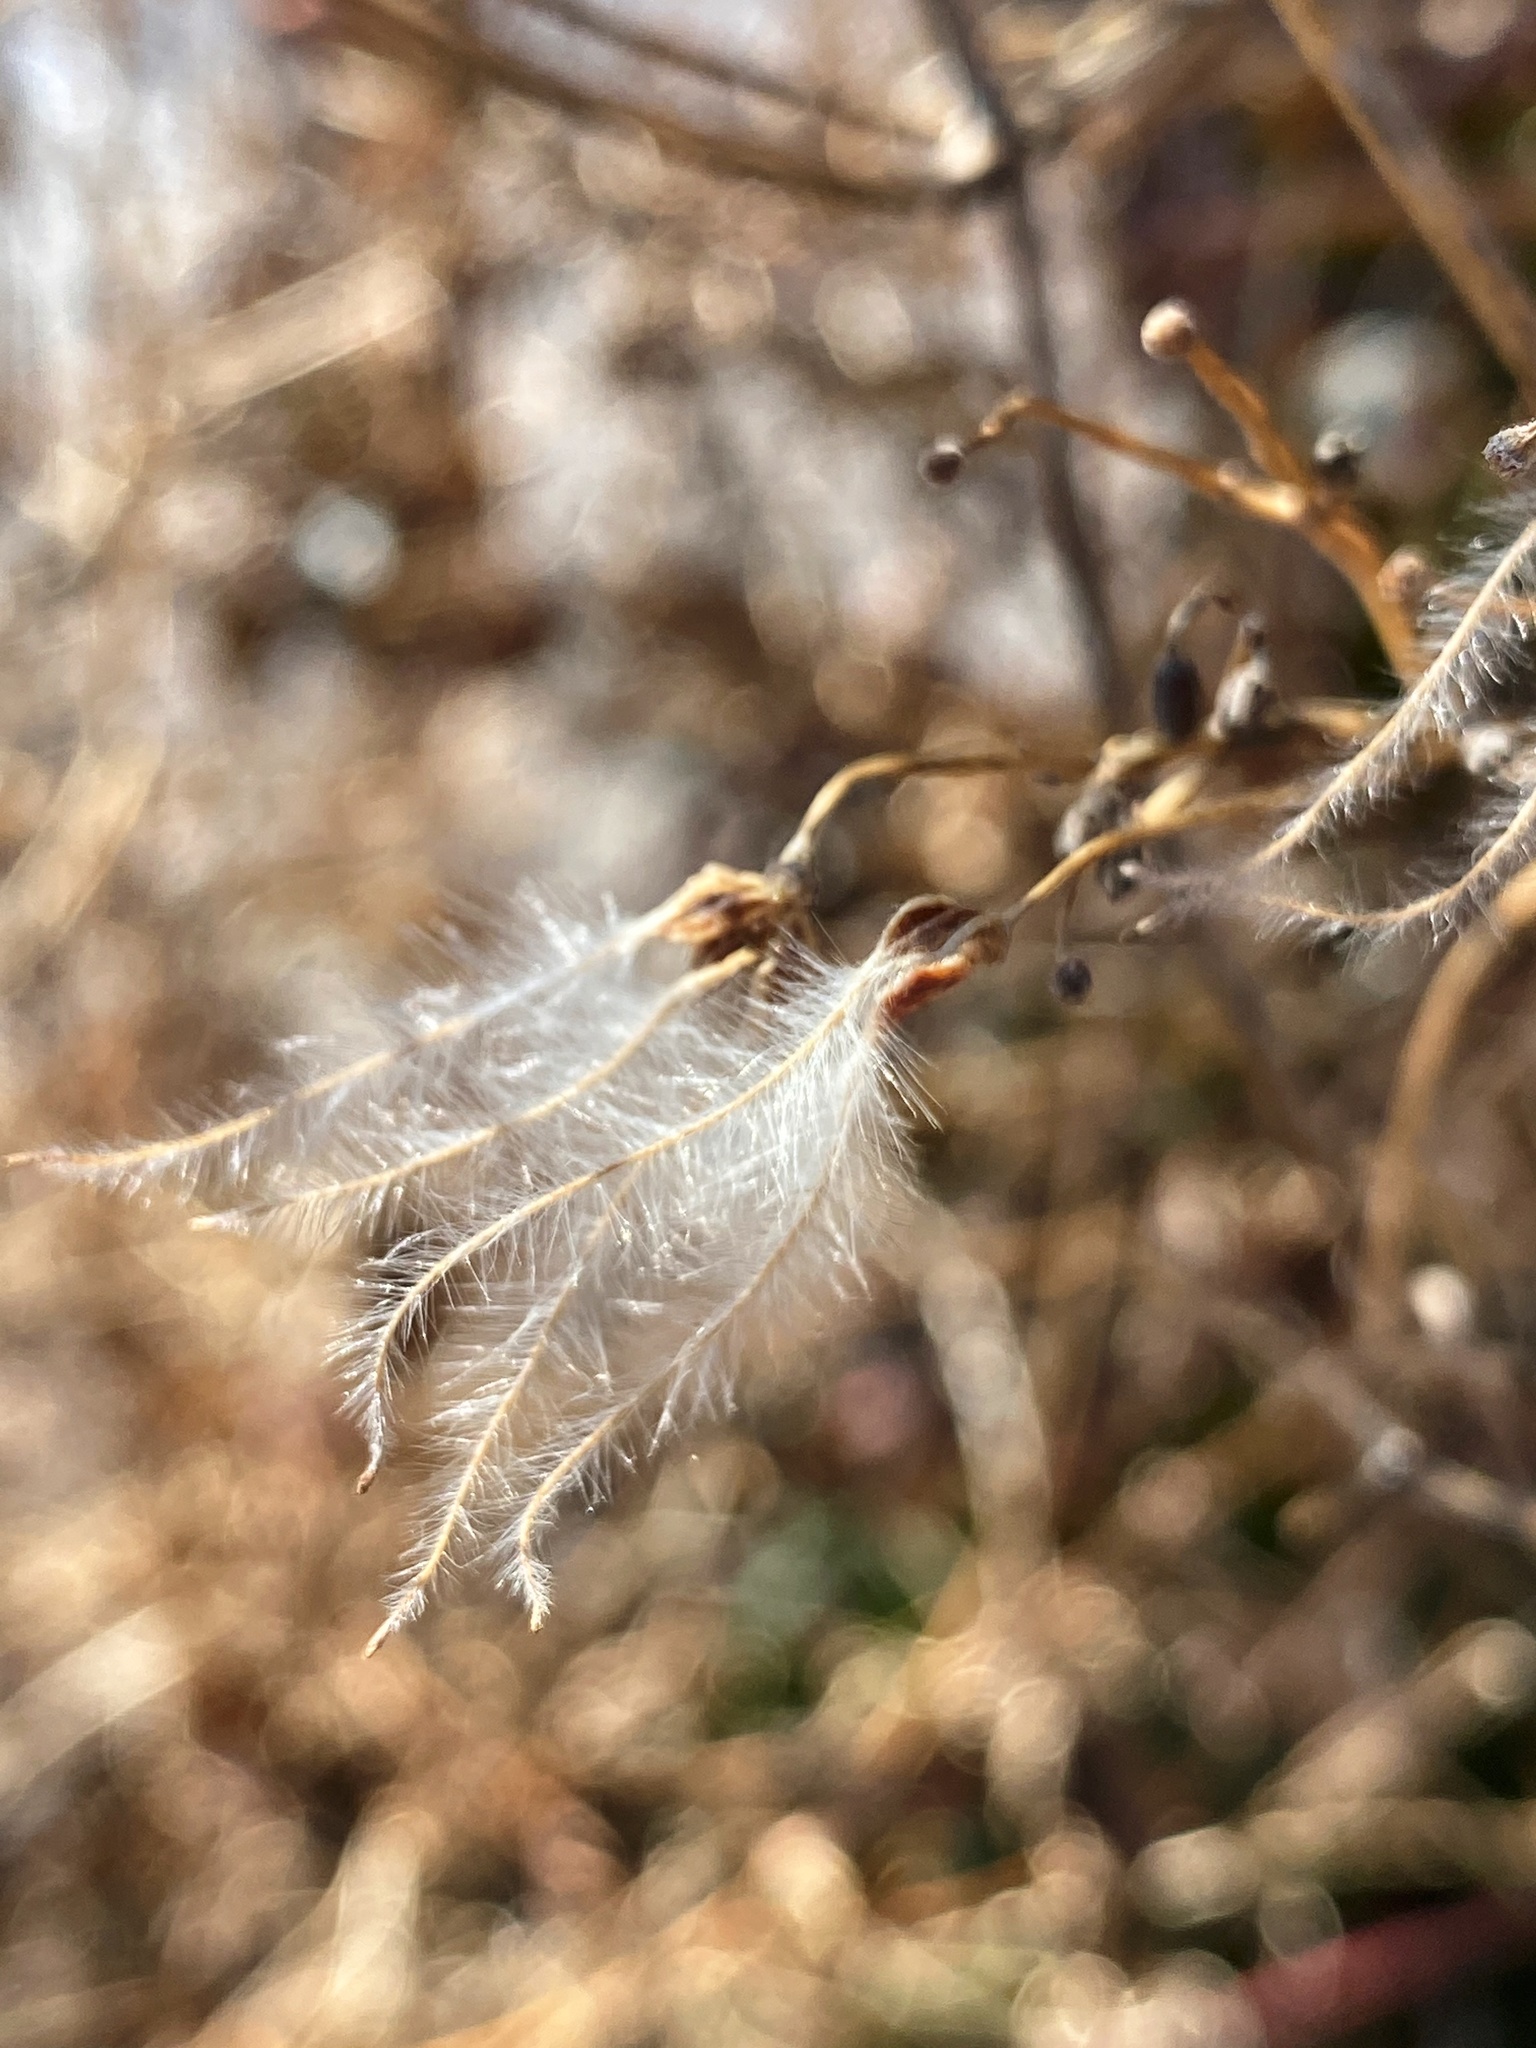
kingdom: Plantae
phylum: Tracheophyta
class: Magnoliopsida
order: Ranunculales
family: Ranunculaceae
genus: Clematis
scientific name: Clematis terniflora
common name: Sweet autumn clematis
